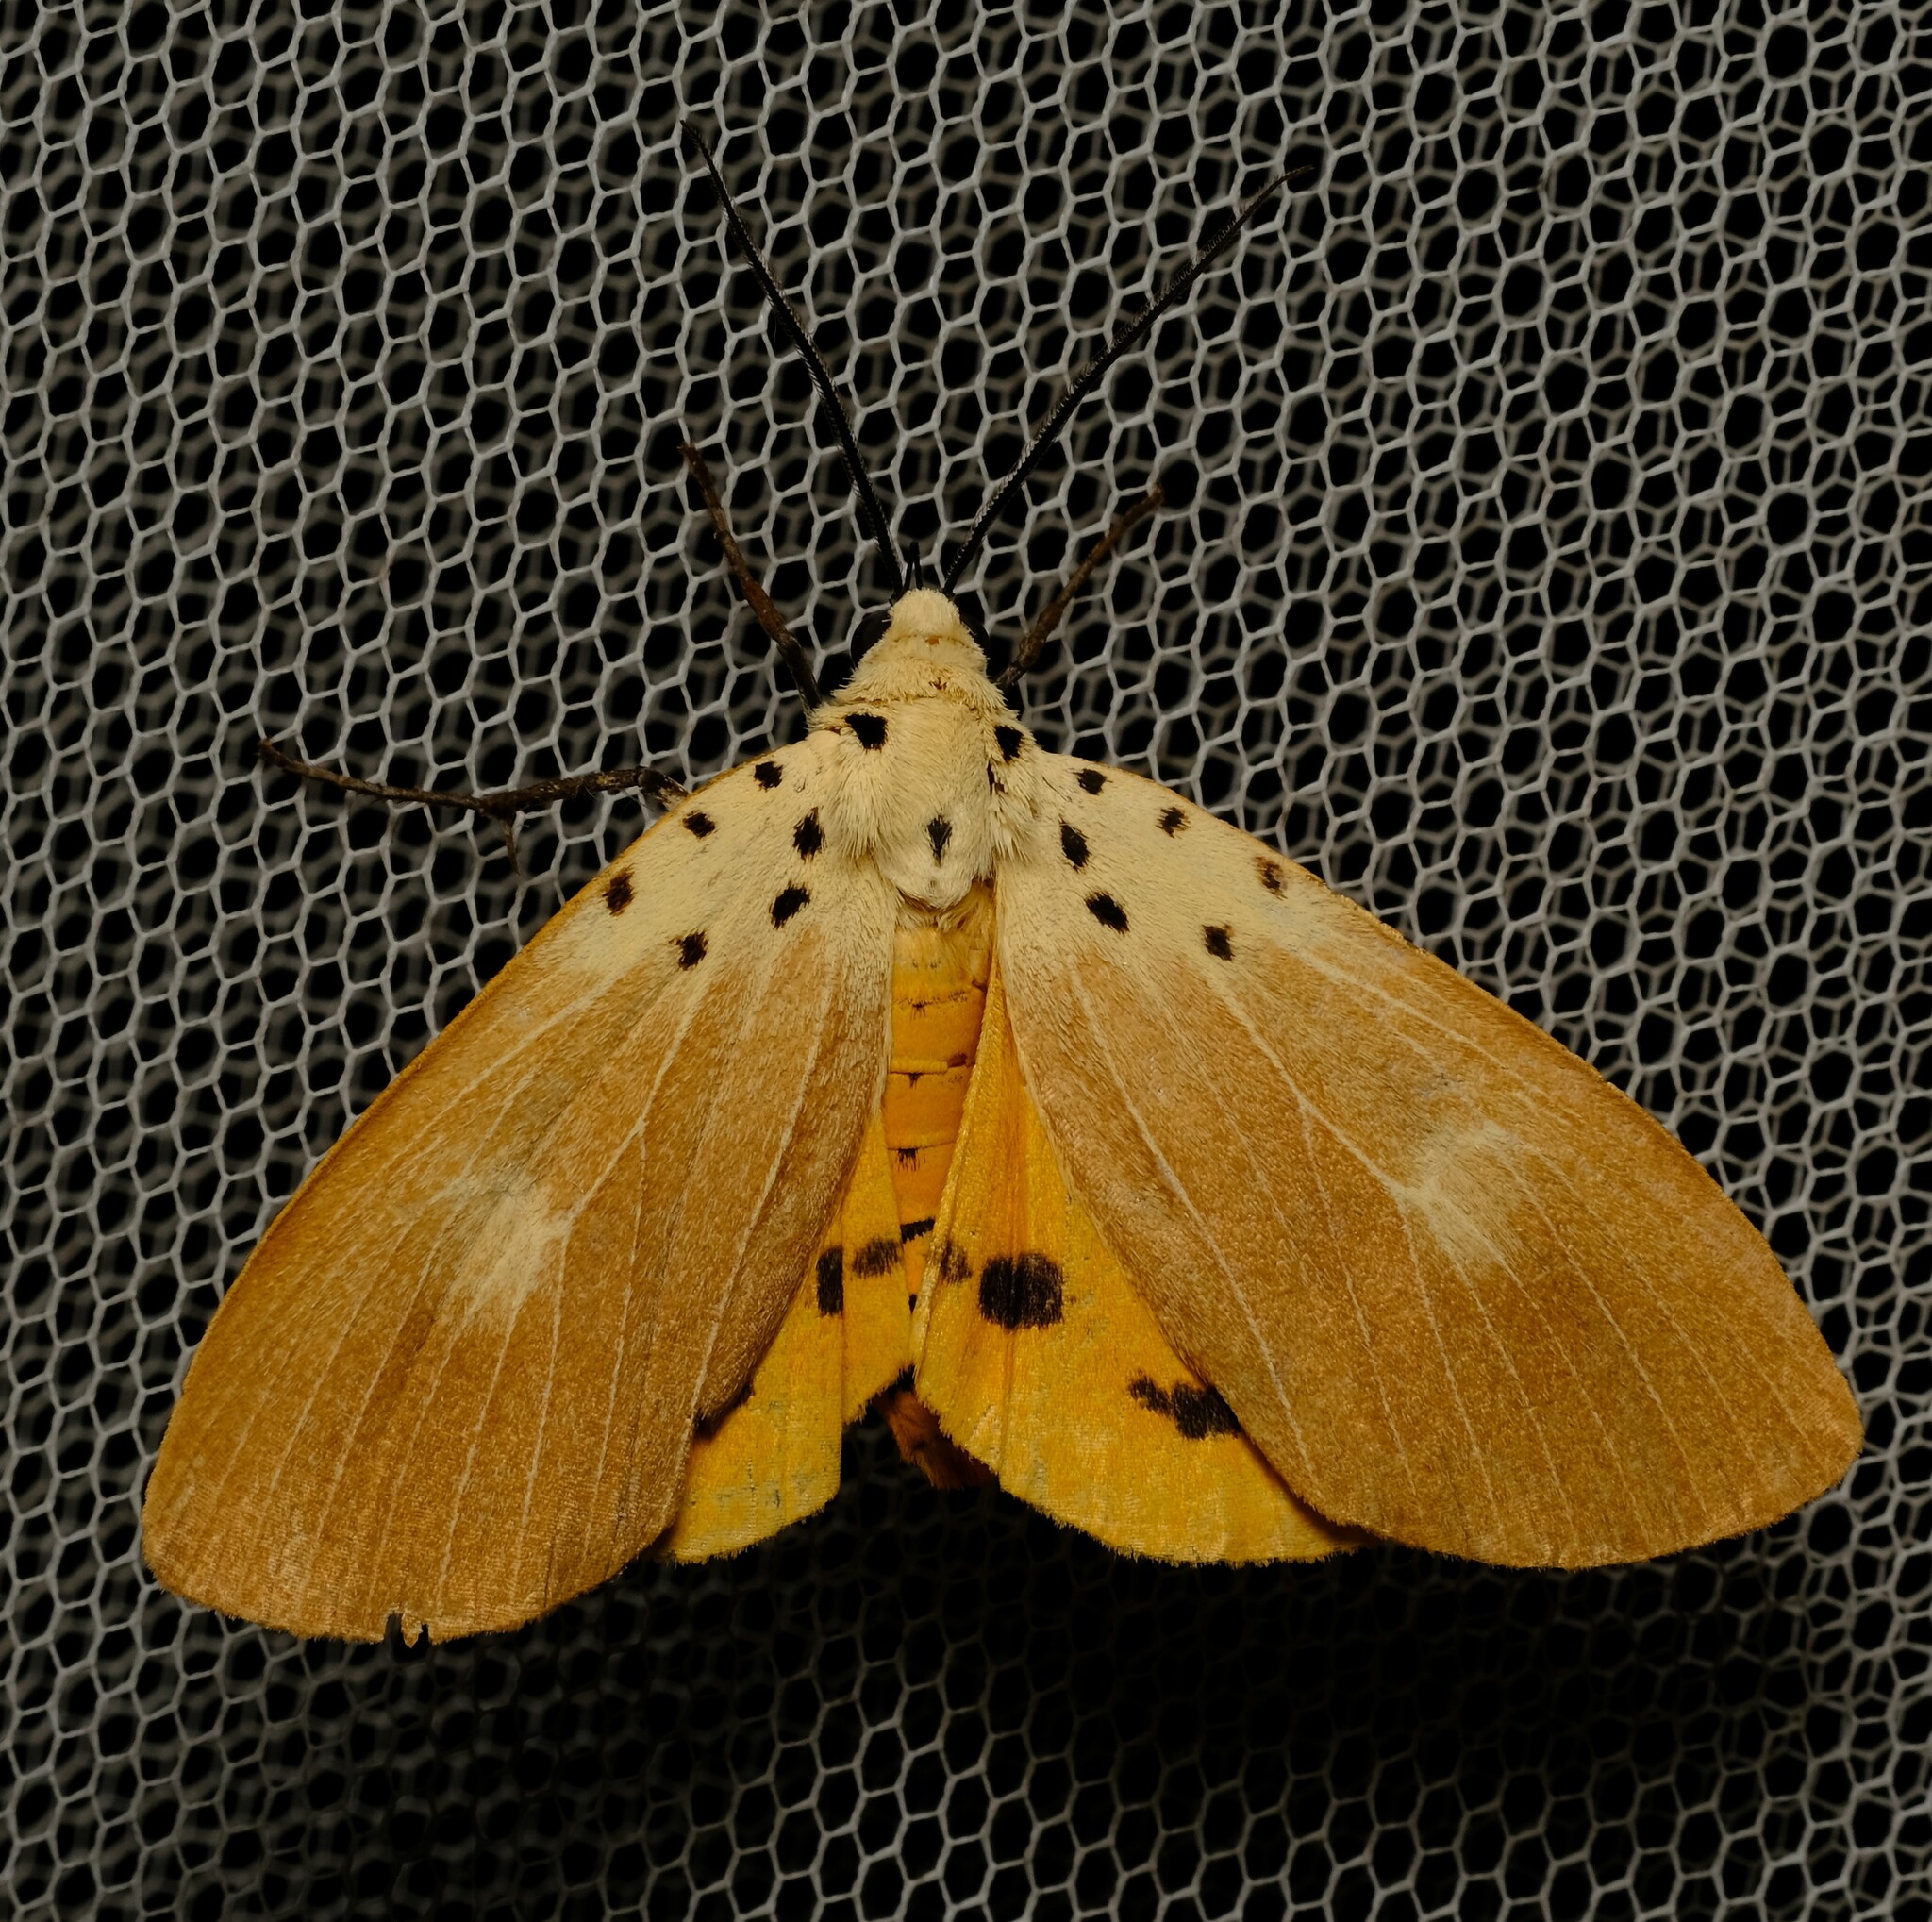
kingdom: Animalia
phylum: Arthropoda
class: Insecta
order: Lepidoptera
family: Erebidae
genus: Asota
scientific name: Asota iodamia
